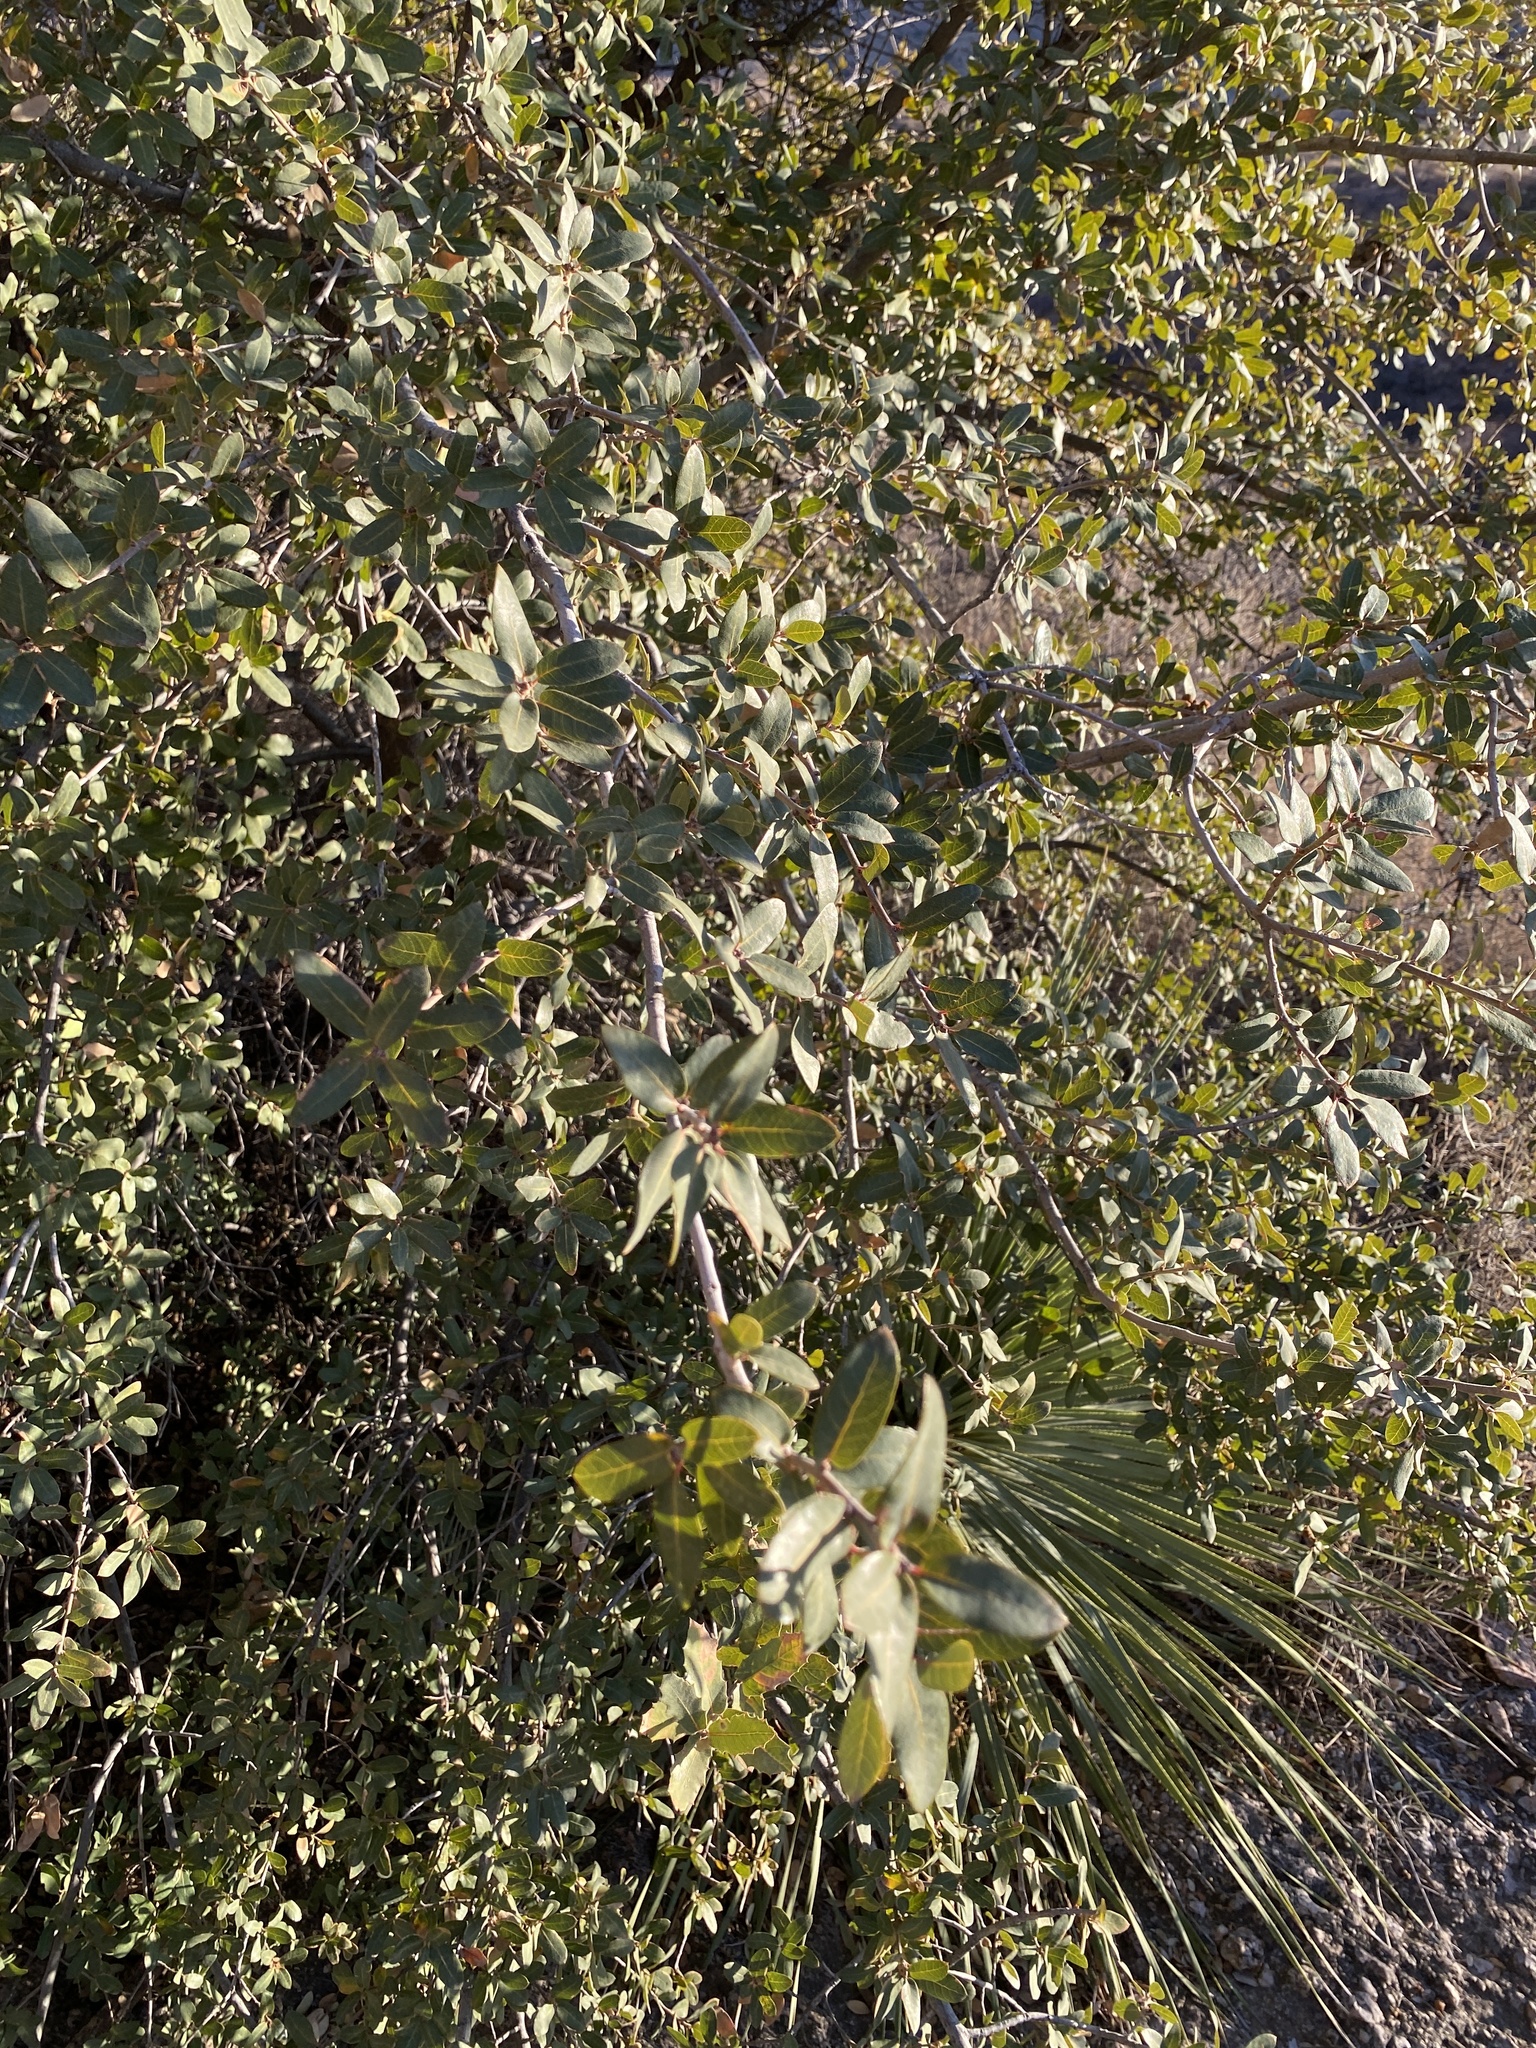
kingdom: Plantae
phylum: Tracheophyta
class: Magnoliopsida
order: Fagales
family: Fagaceae
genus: Quercus
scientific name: Quercus grisea
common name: Gray oak
